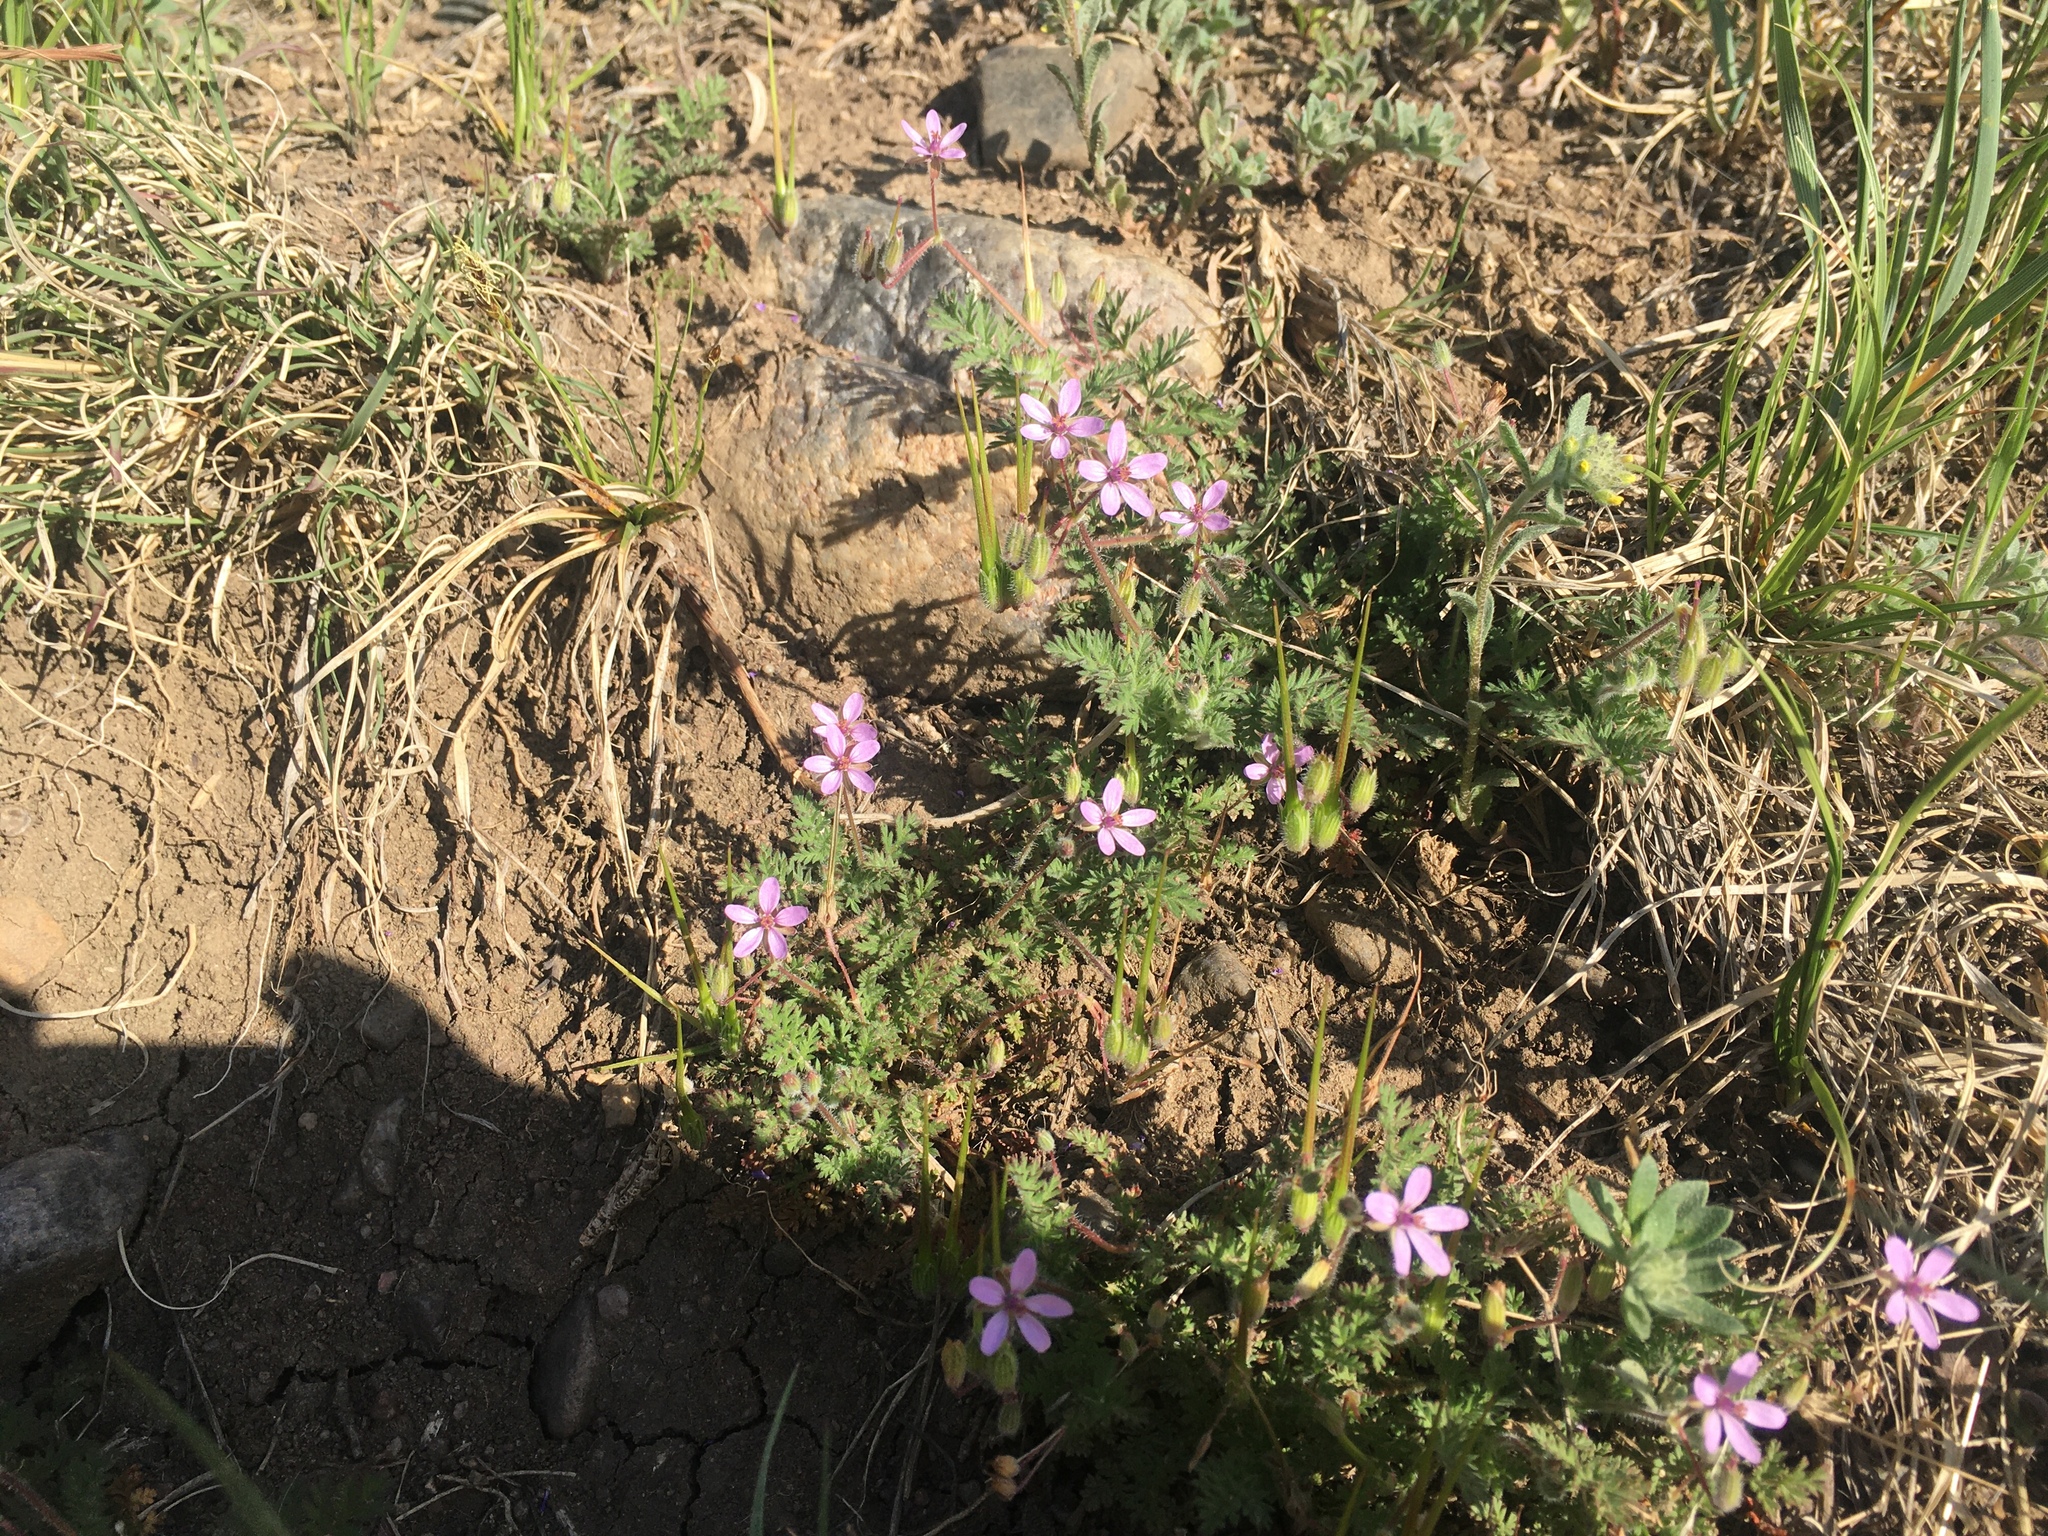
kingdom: Plantae
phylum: Tracheophyta
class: Magnoliopsida
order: Geraniales
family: Geraniaceae
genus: Erodium
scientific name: Erodium cicutarium
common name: Common stork's-bill
